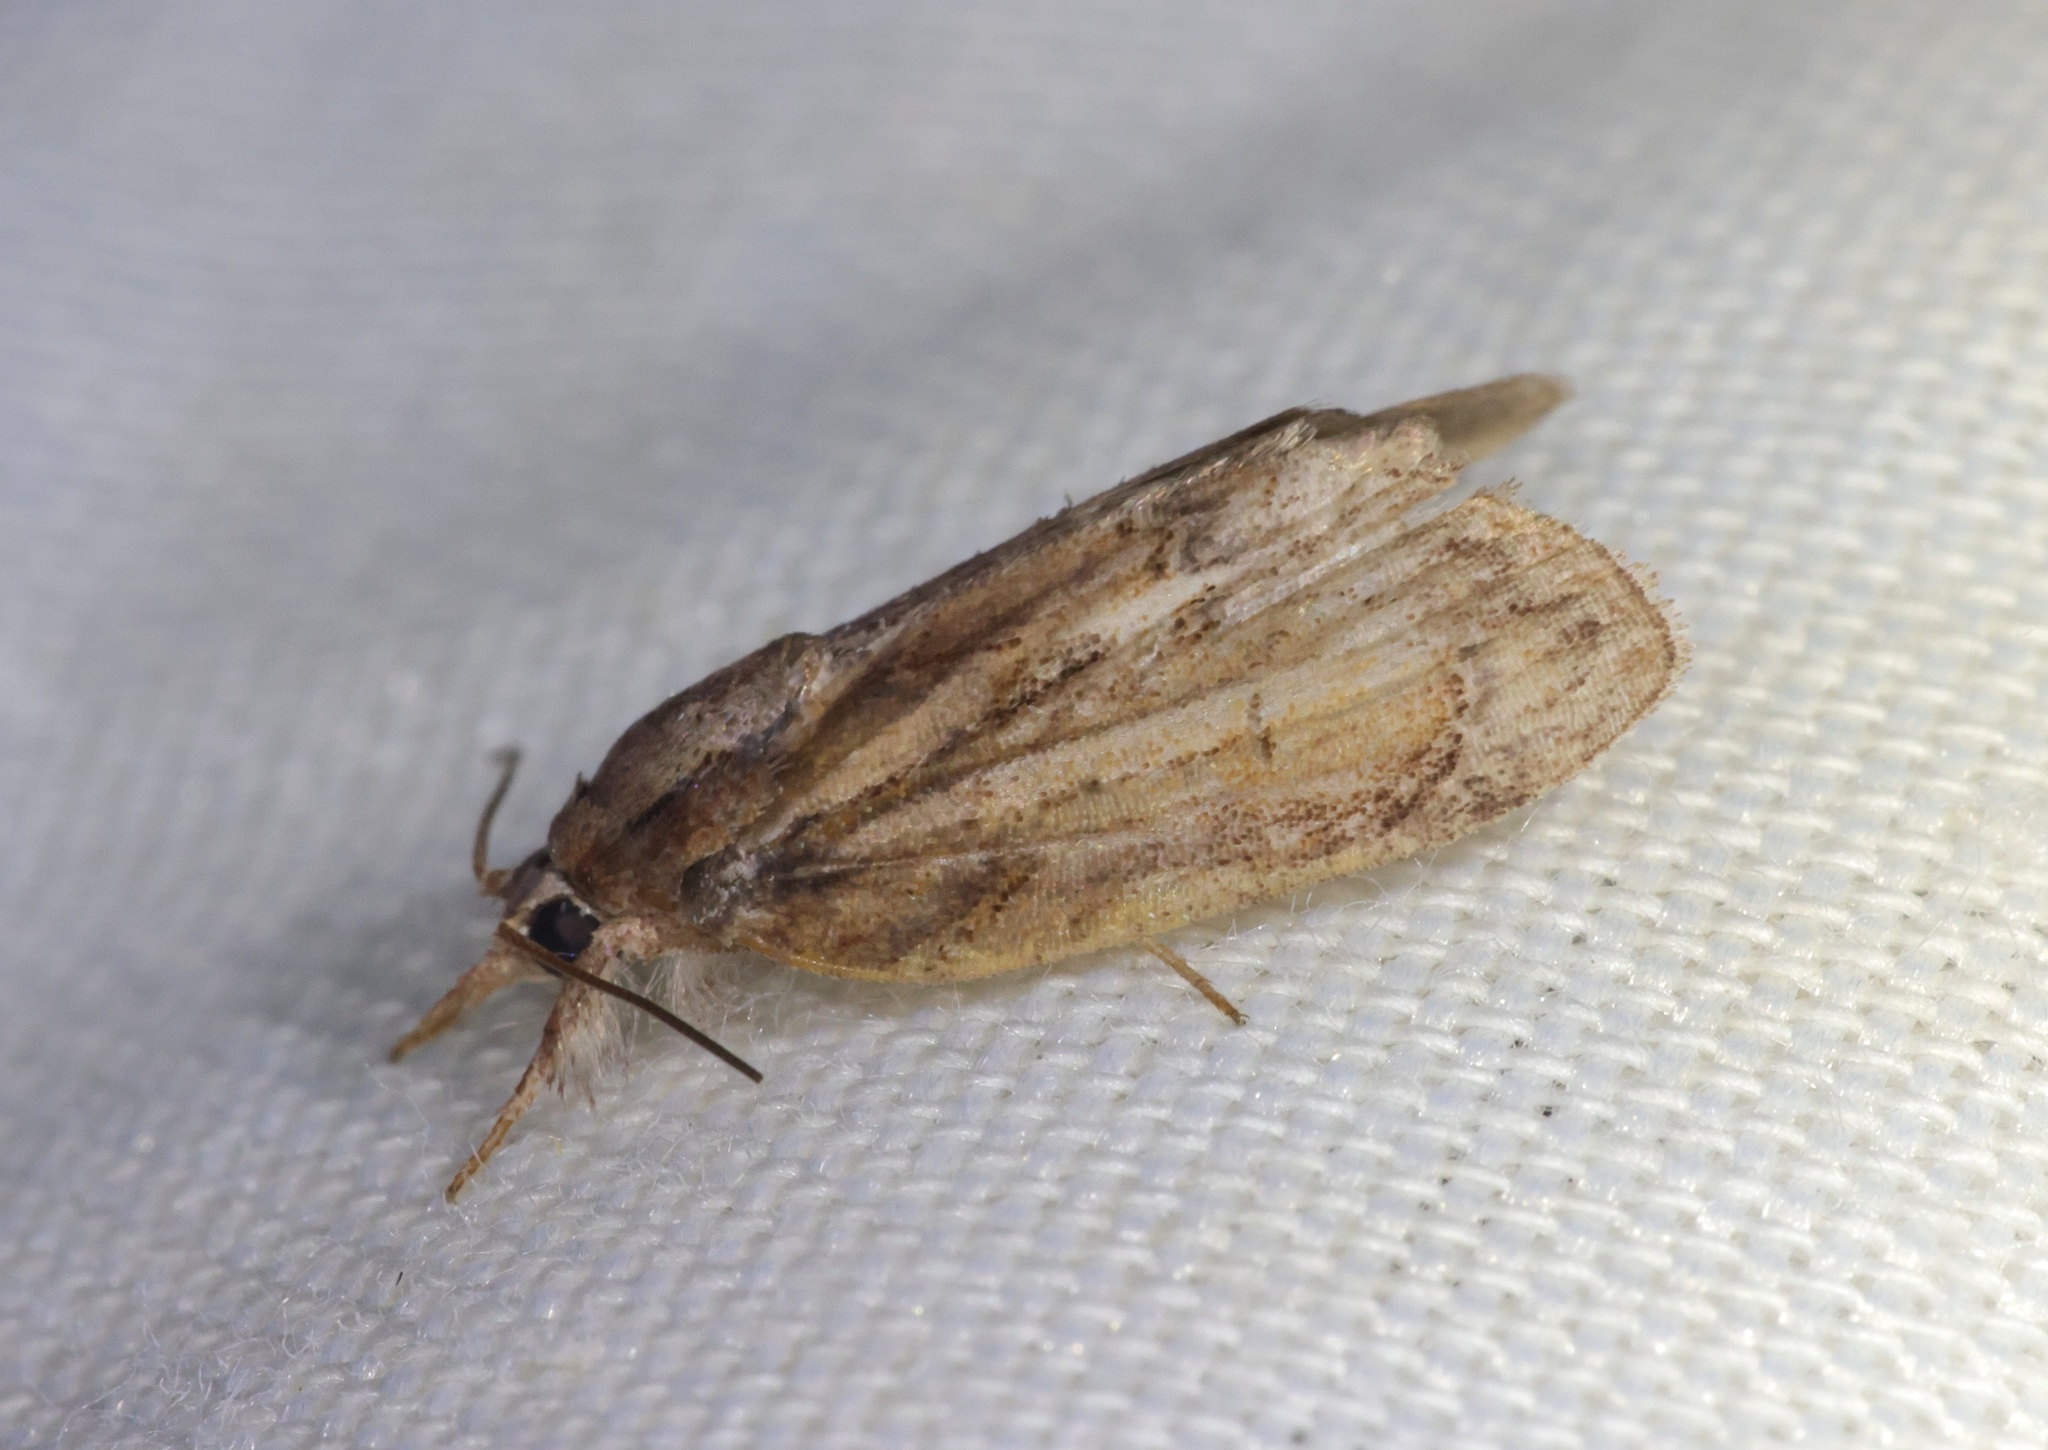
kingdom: Animalia
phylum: Arthropoda
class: Insecta
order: Lepidoptera
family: Nolidae
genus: Selepa
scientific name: Selepa discigera
